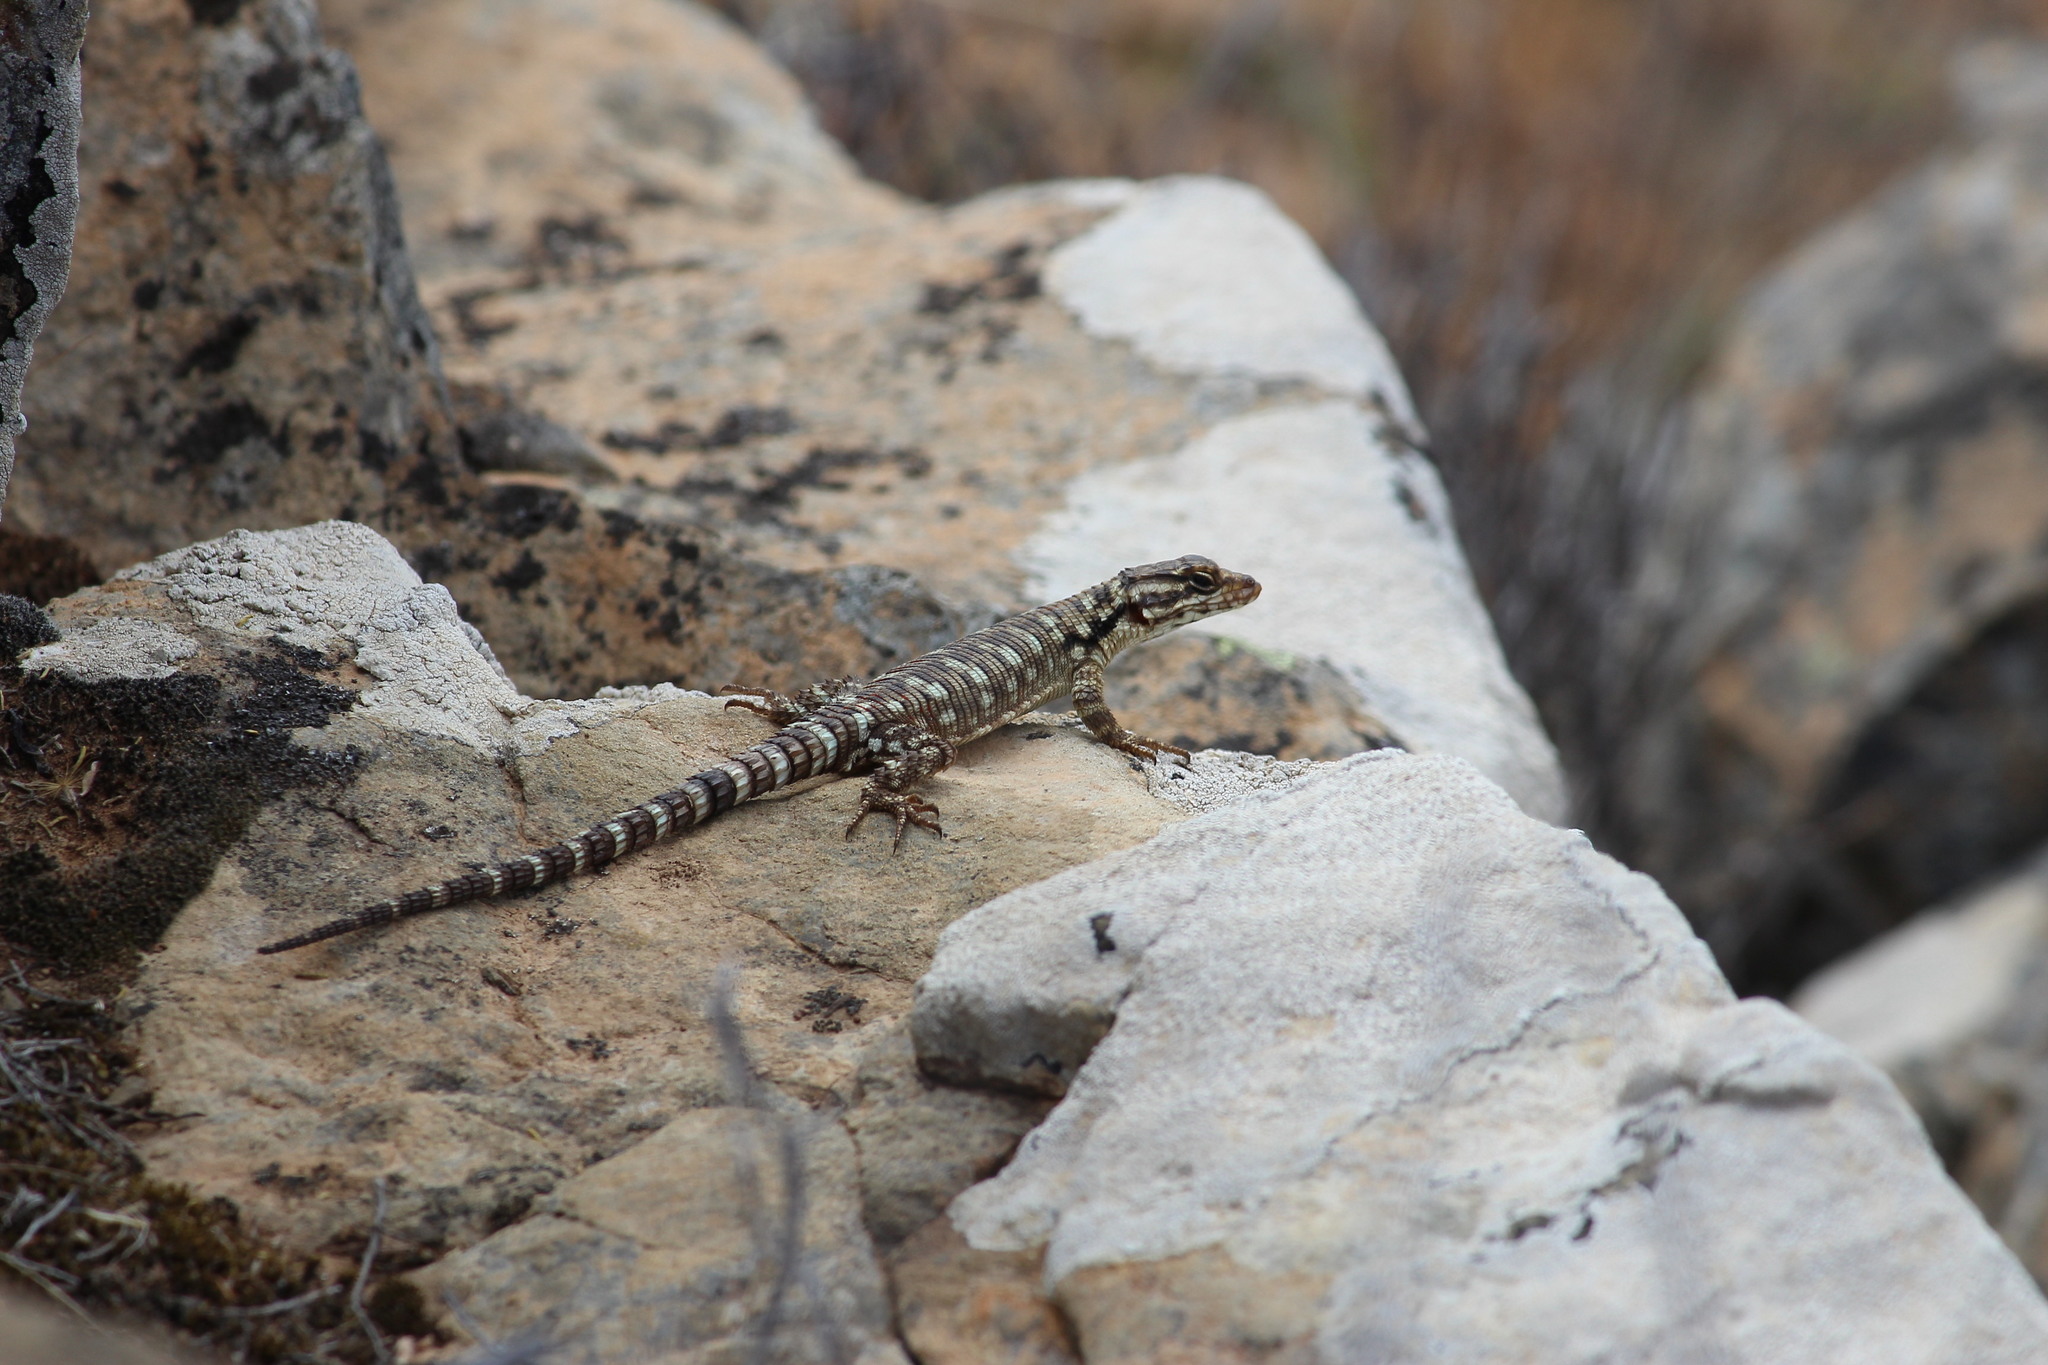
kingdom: Animalia
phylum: Chordata
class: Squamata
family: Cordylidae
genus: Karusasaurus
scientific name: Karusasaurus polyzonus
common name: Karoo girdled lizard
